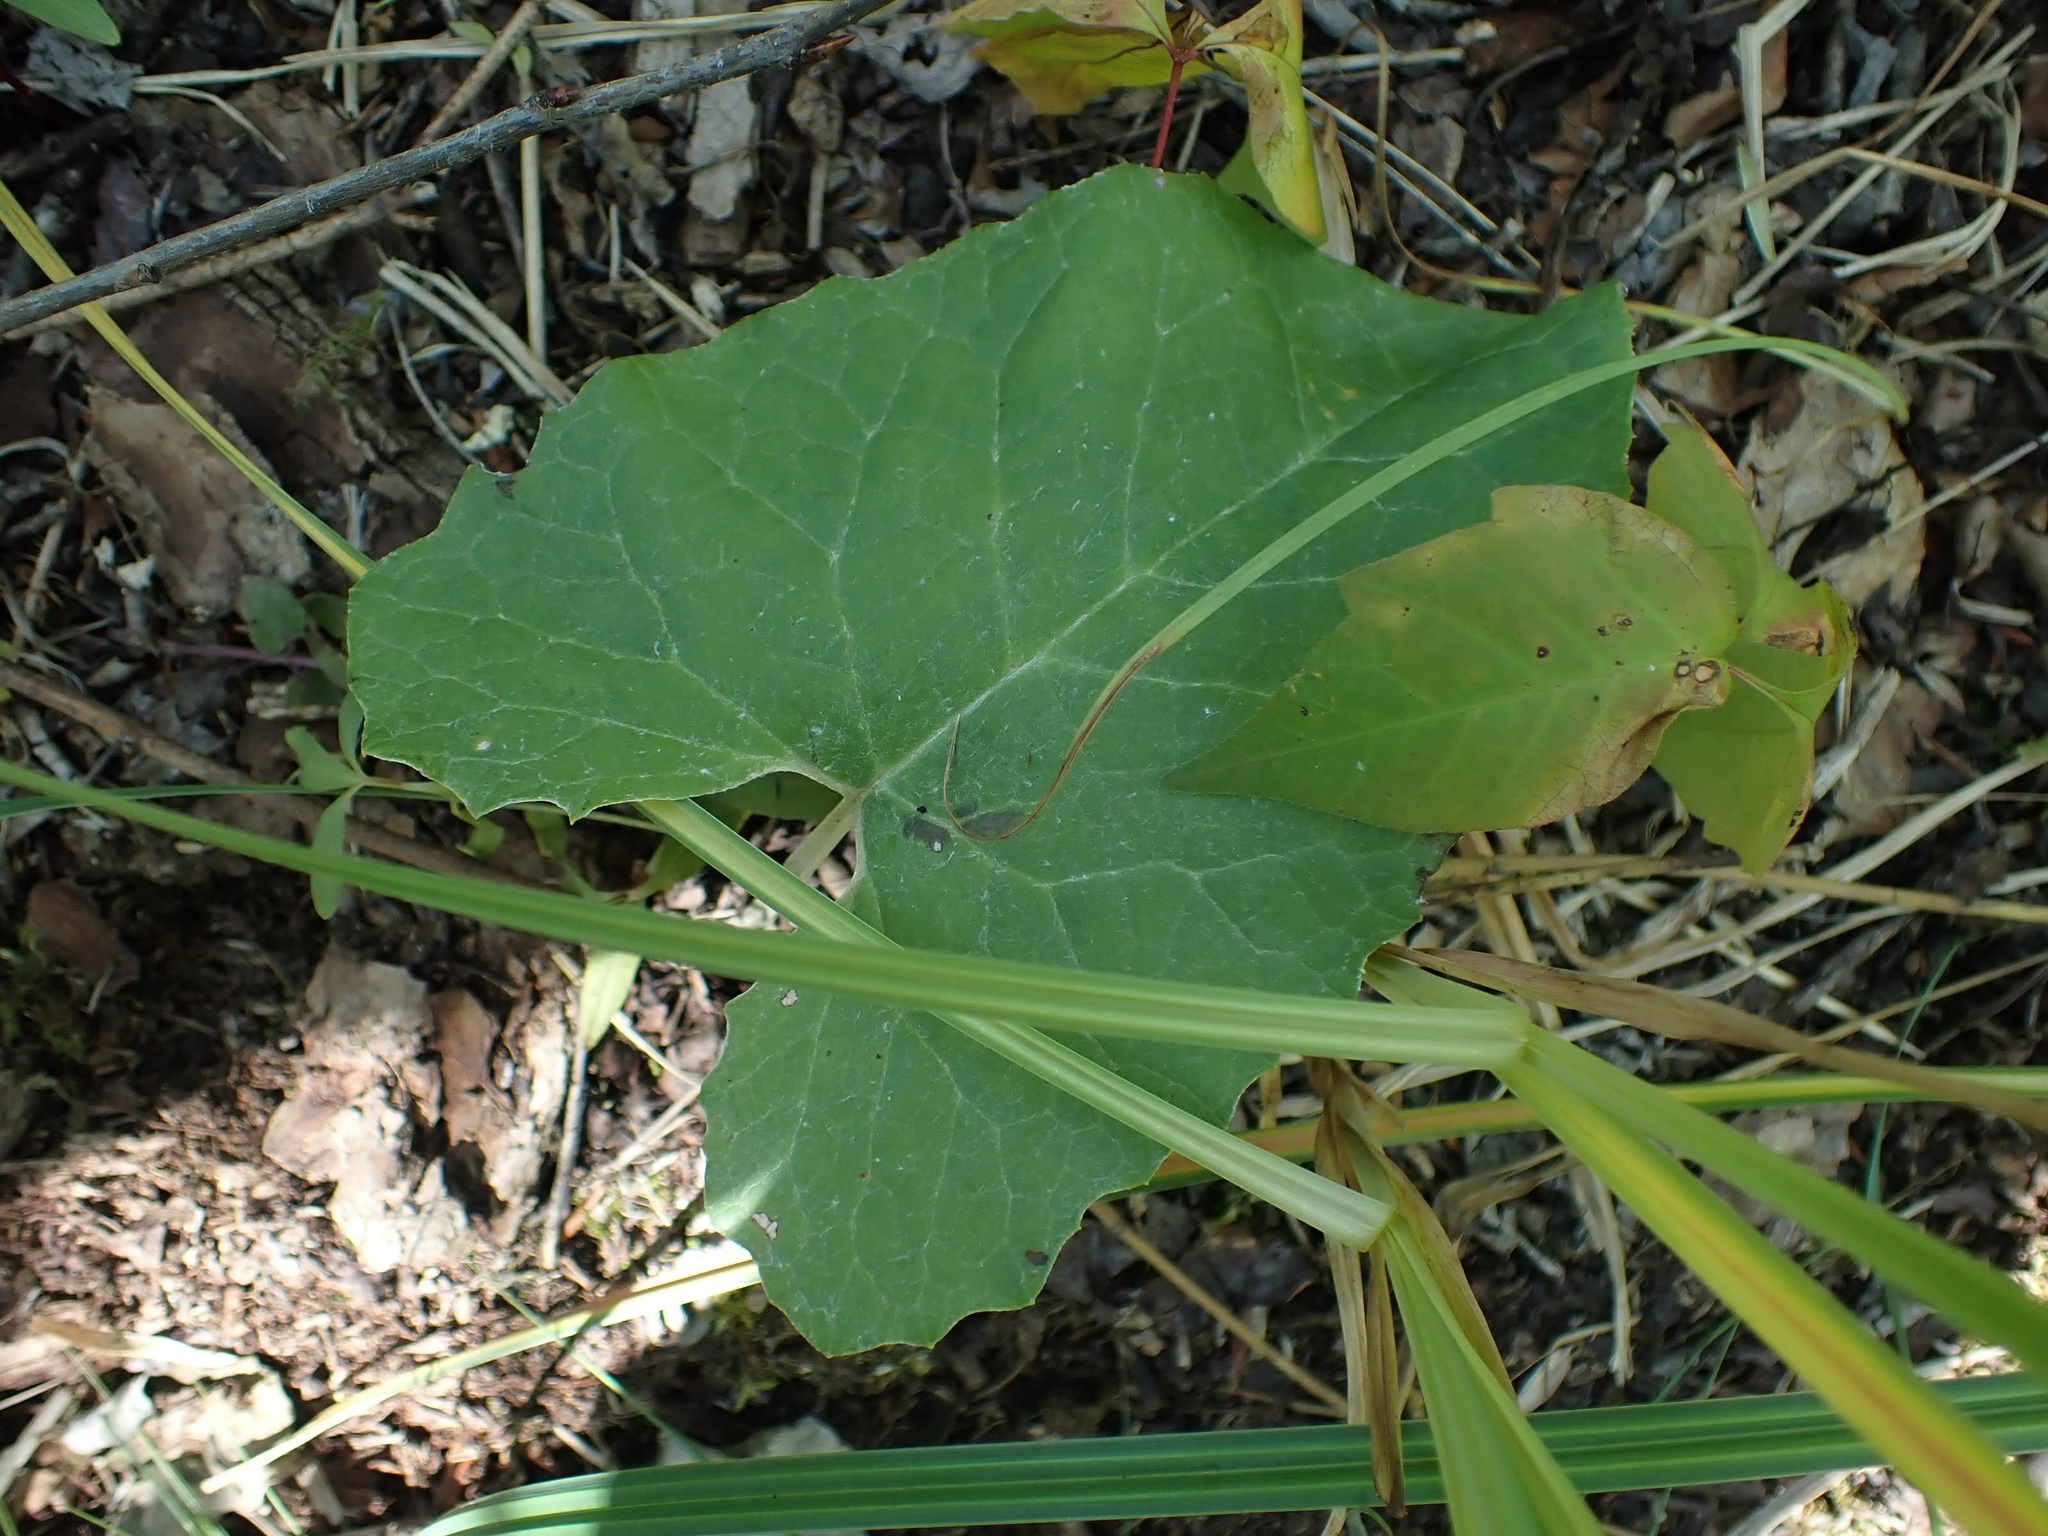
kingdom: Plantae
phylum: Tracheophyta
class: Magnoliopsida
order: Asterales
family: Asteraceae
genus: Petasites
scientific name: Petasites frigidus
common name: Arctic butterbur
